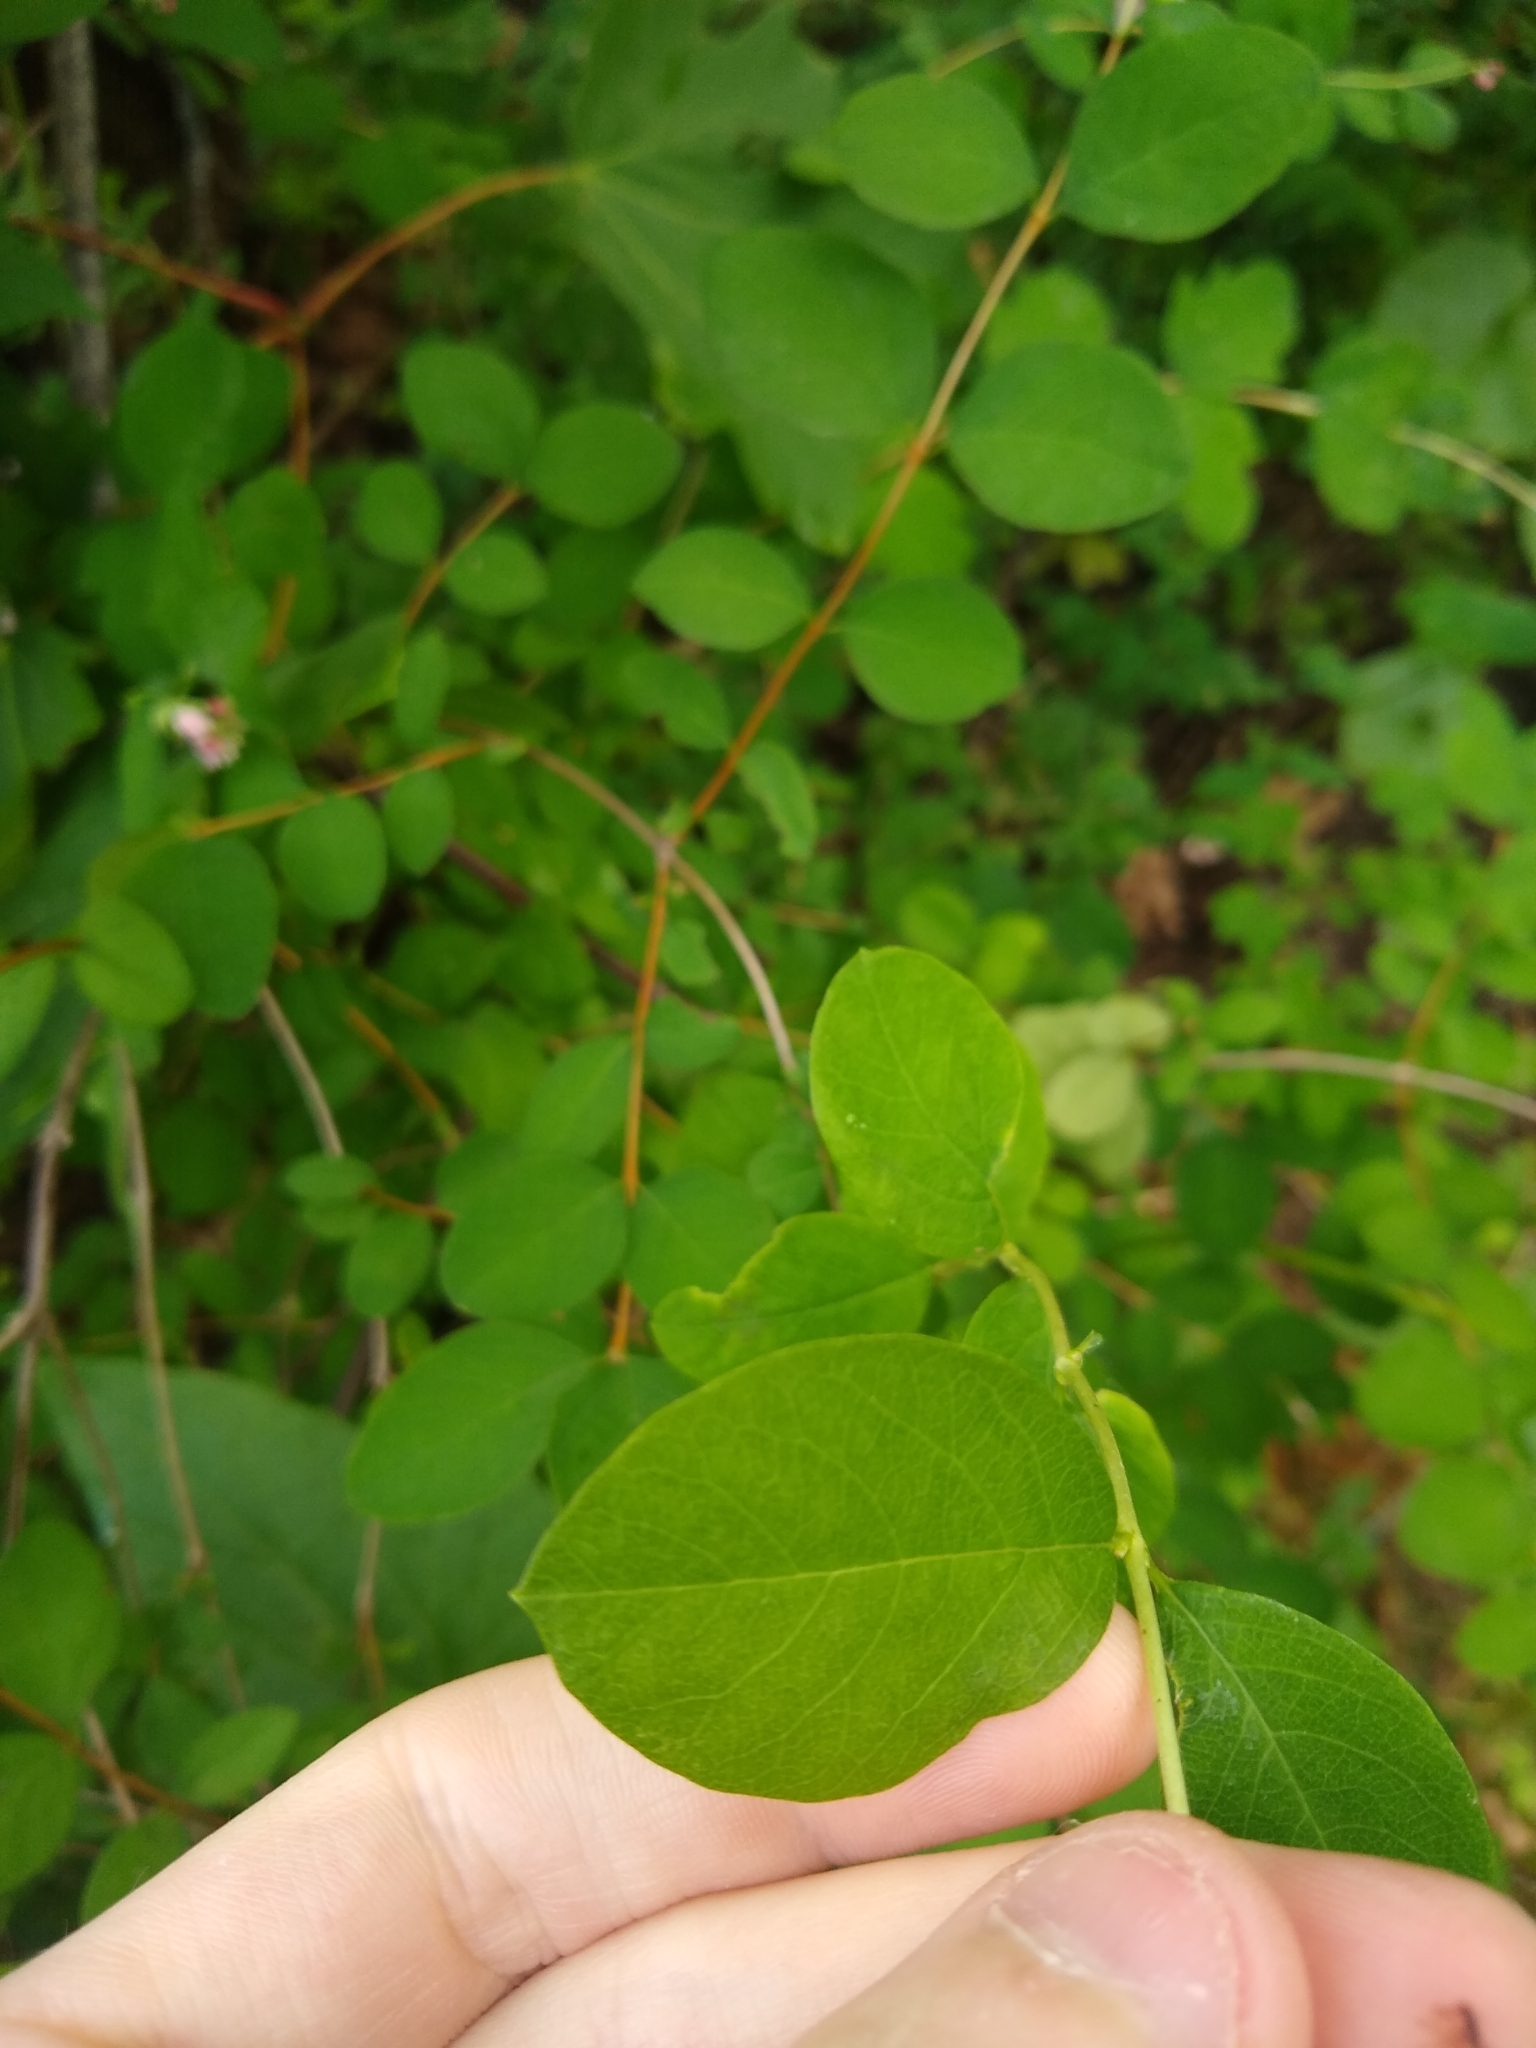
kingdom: Plantae
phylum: Tracheophyta
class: Magnoliopsida
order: Dipsacales
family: Caprifoliaceae
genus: Symphoricarpos
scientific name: Symphoricarpos albus
